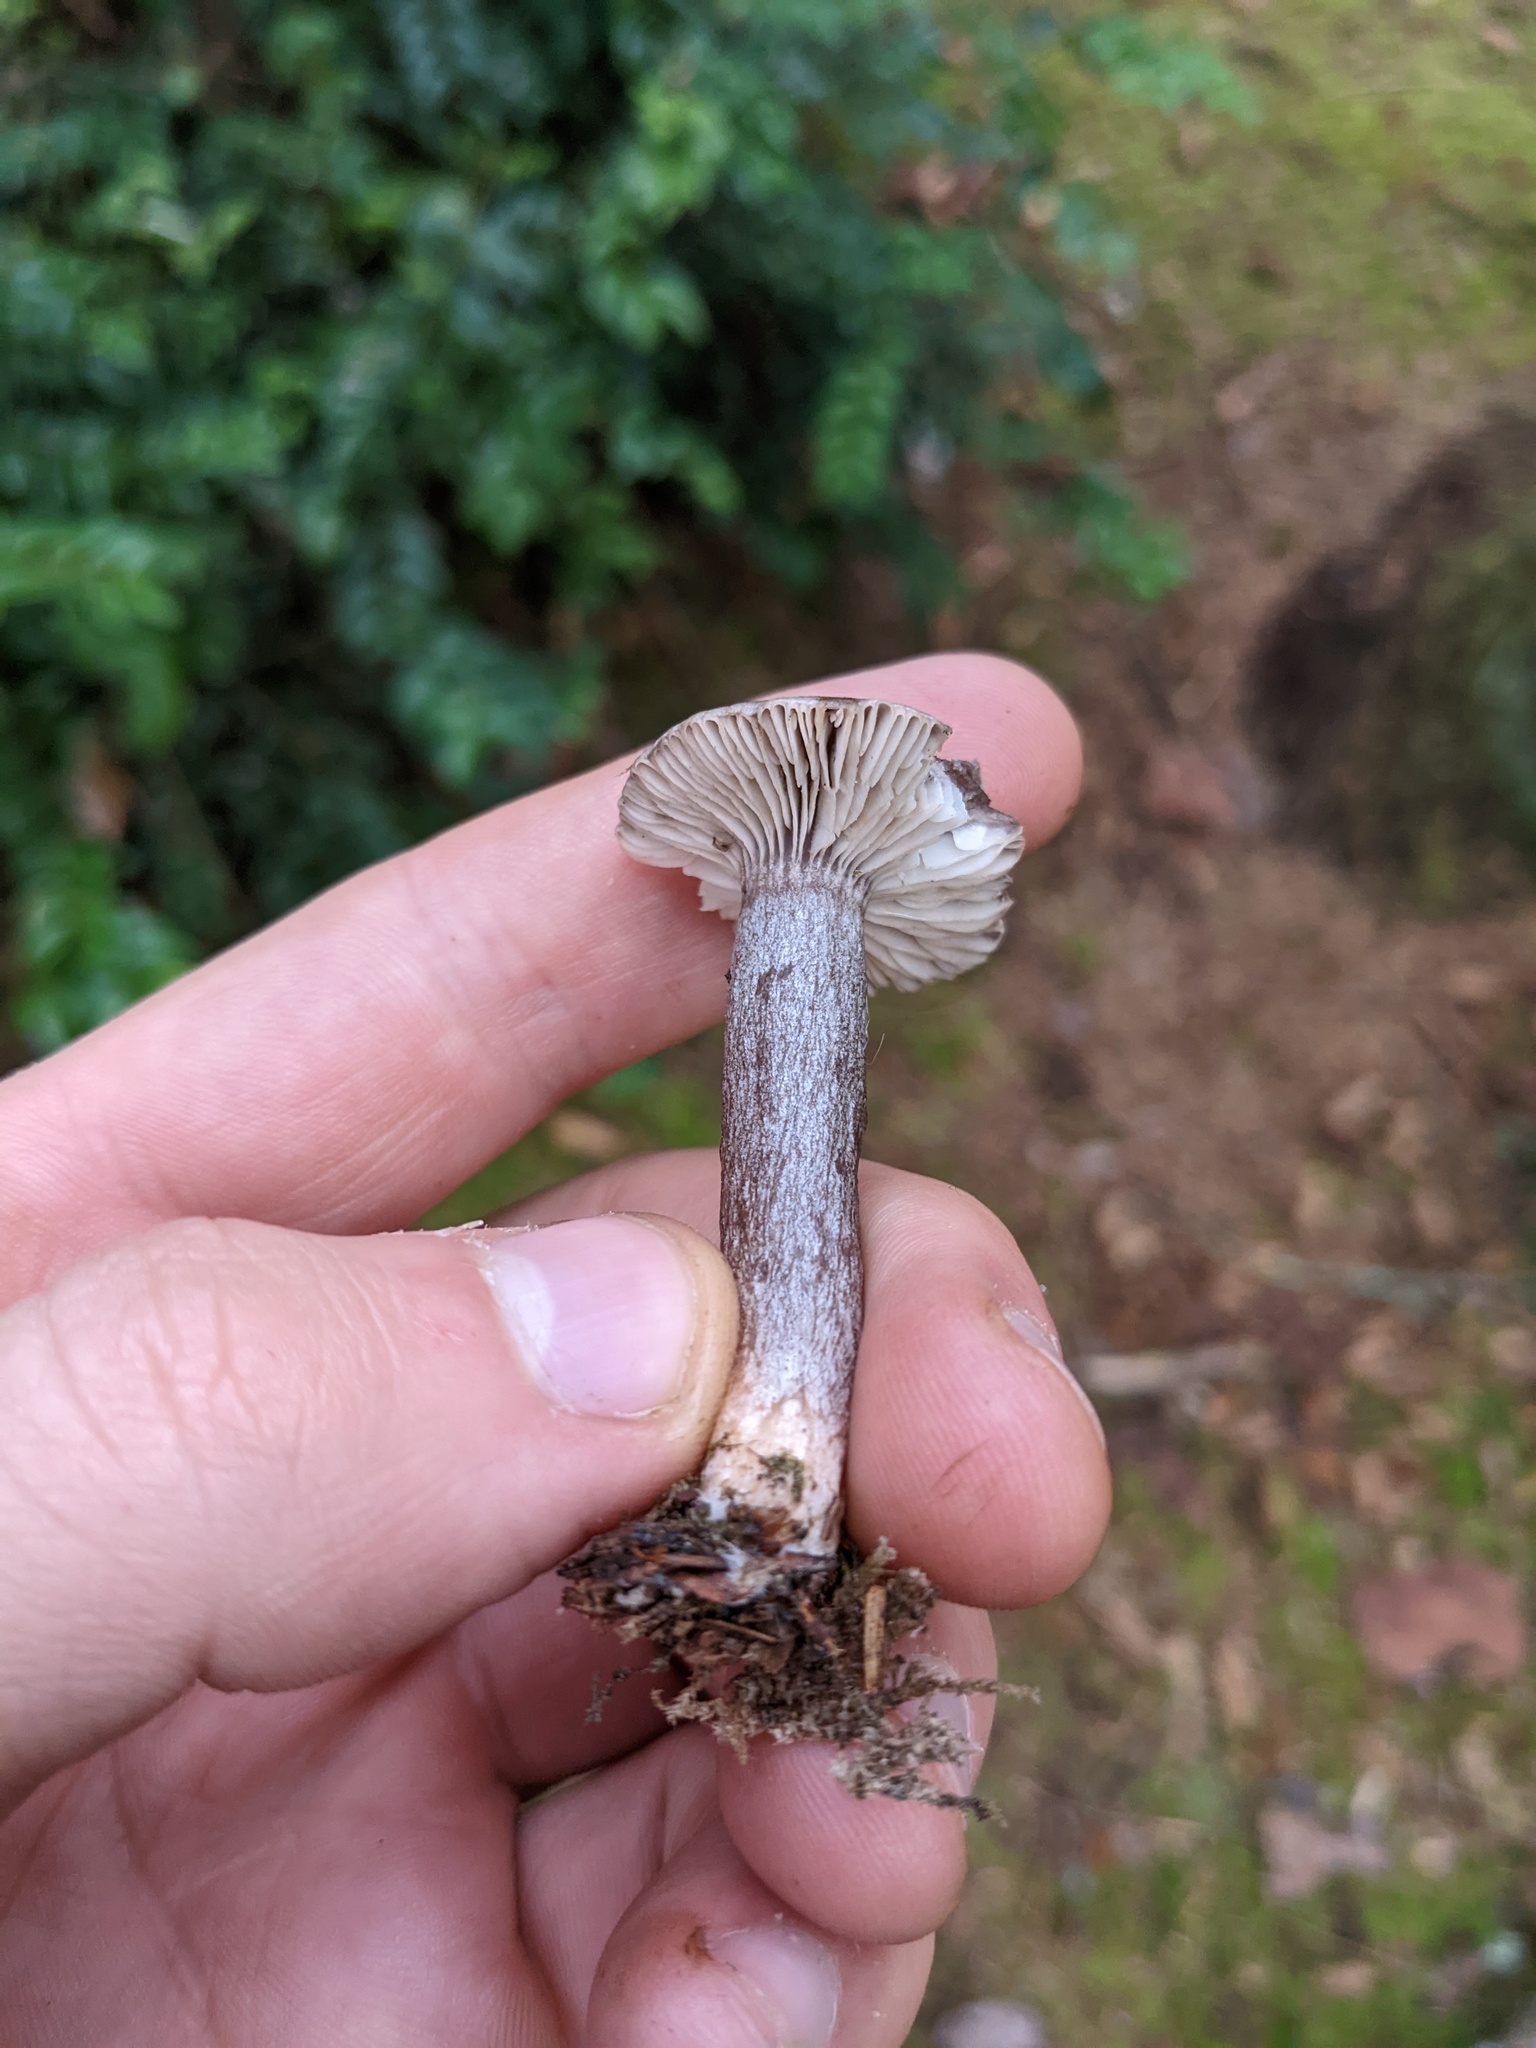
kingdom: Fungi
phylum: Basidiomycota
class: Agaricomycetes
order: Russulales
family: Russulaceae
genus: Lactarius
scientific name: Lactarius pseudomucidus
